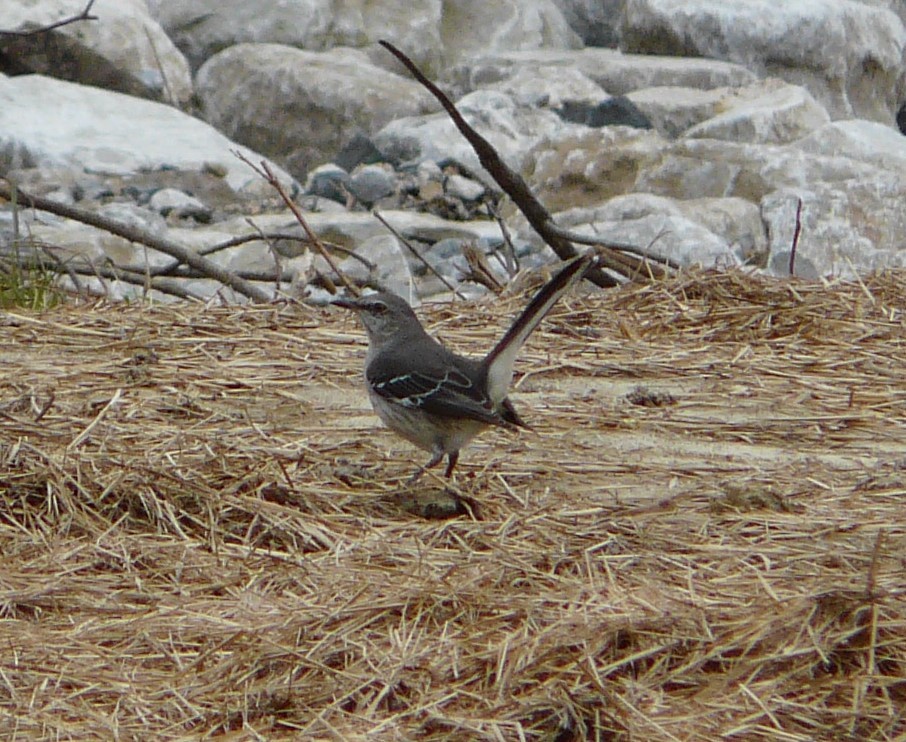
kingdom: Animalia
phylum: Chordata
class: Aves
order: Passeriformes
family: Mimidae
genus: Mimus
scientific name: Mimus polyglottos
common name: Northern mockingbird
